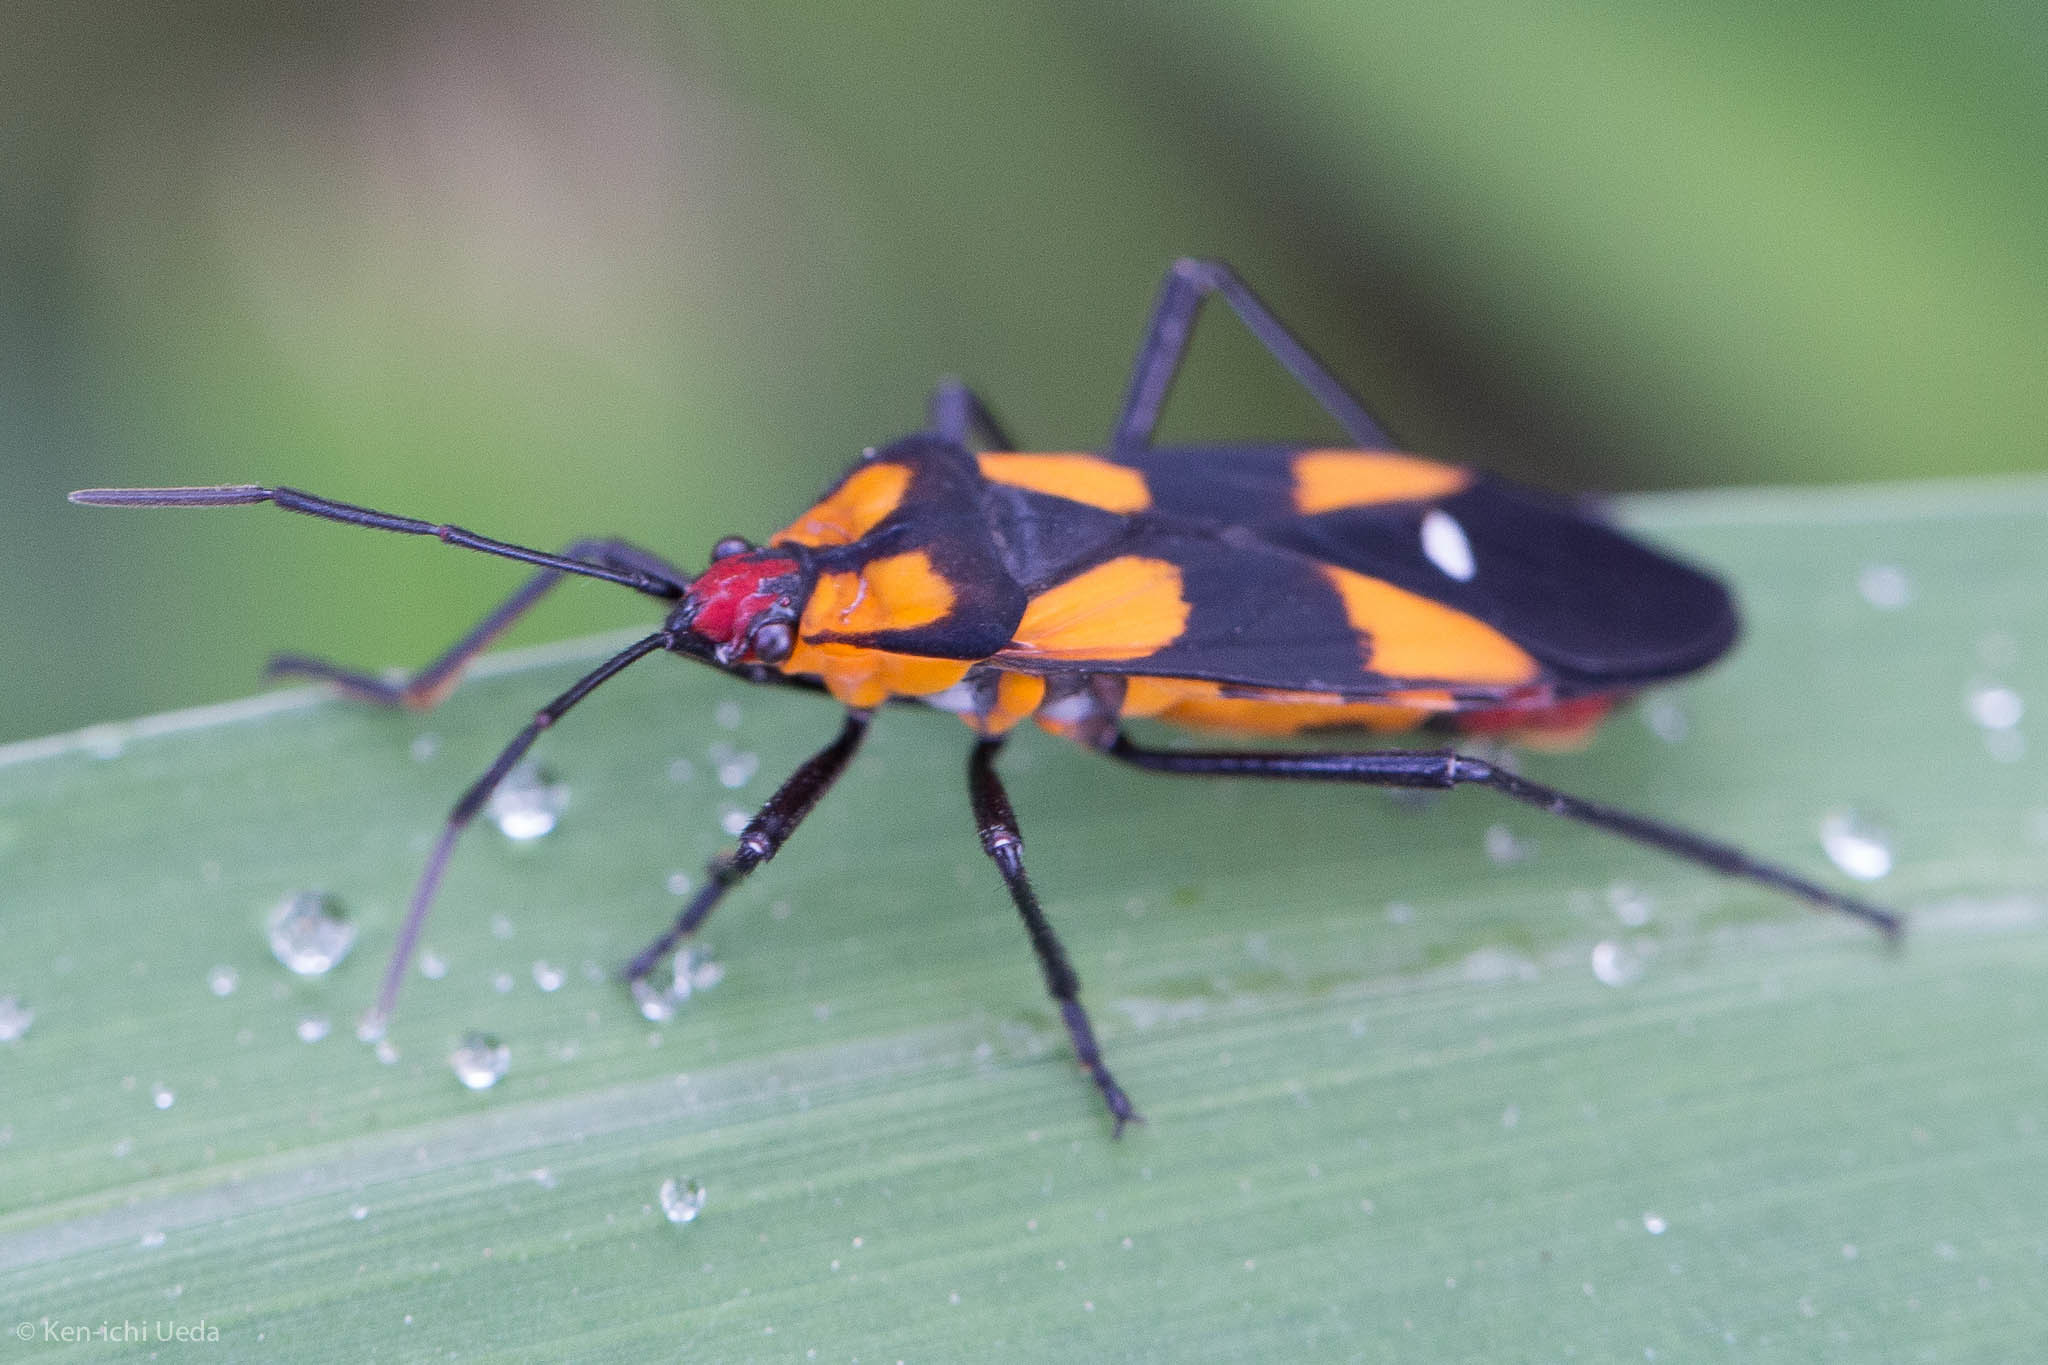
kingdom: Animalia
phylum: Arthropoda
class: Insecta
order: Hemiptera
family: Lygaeidae
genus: Oncopeltus
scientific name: Oncopeltus sexmaculatus
